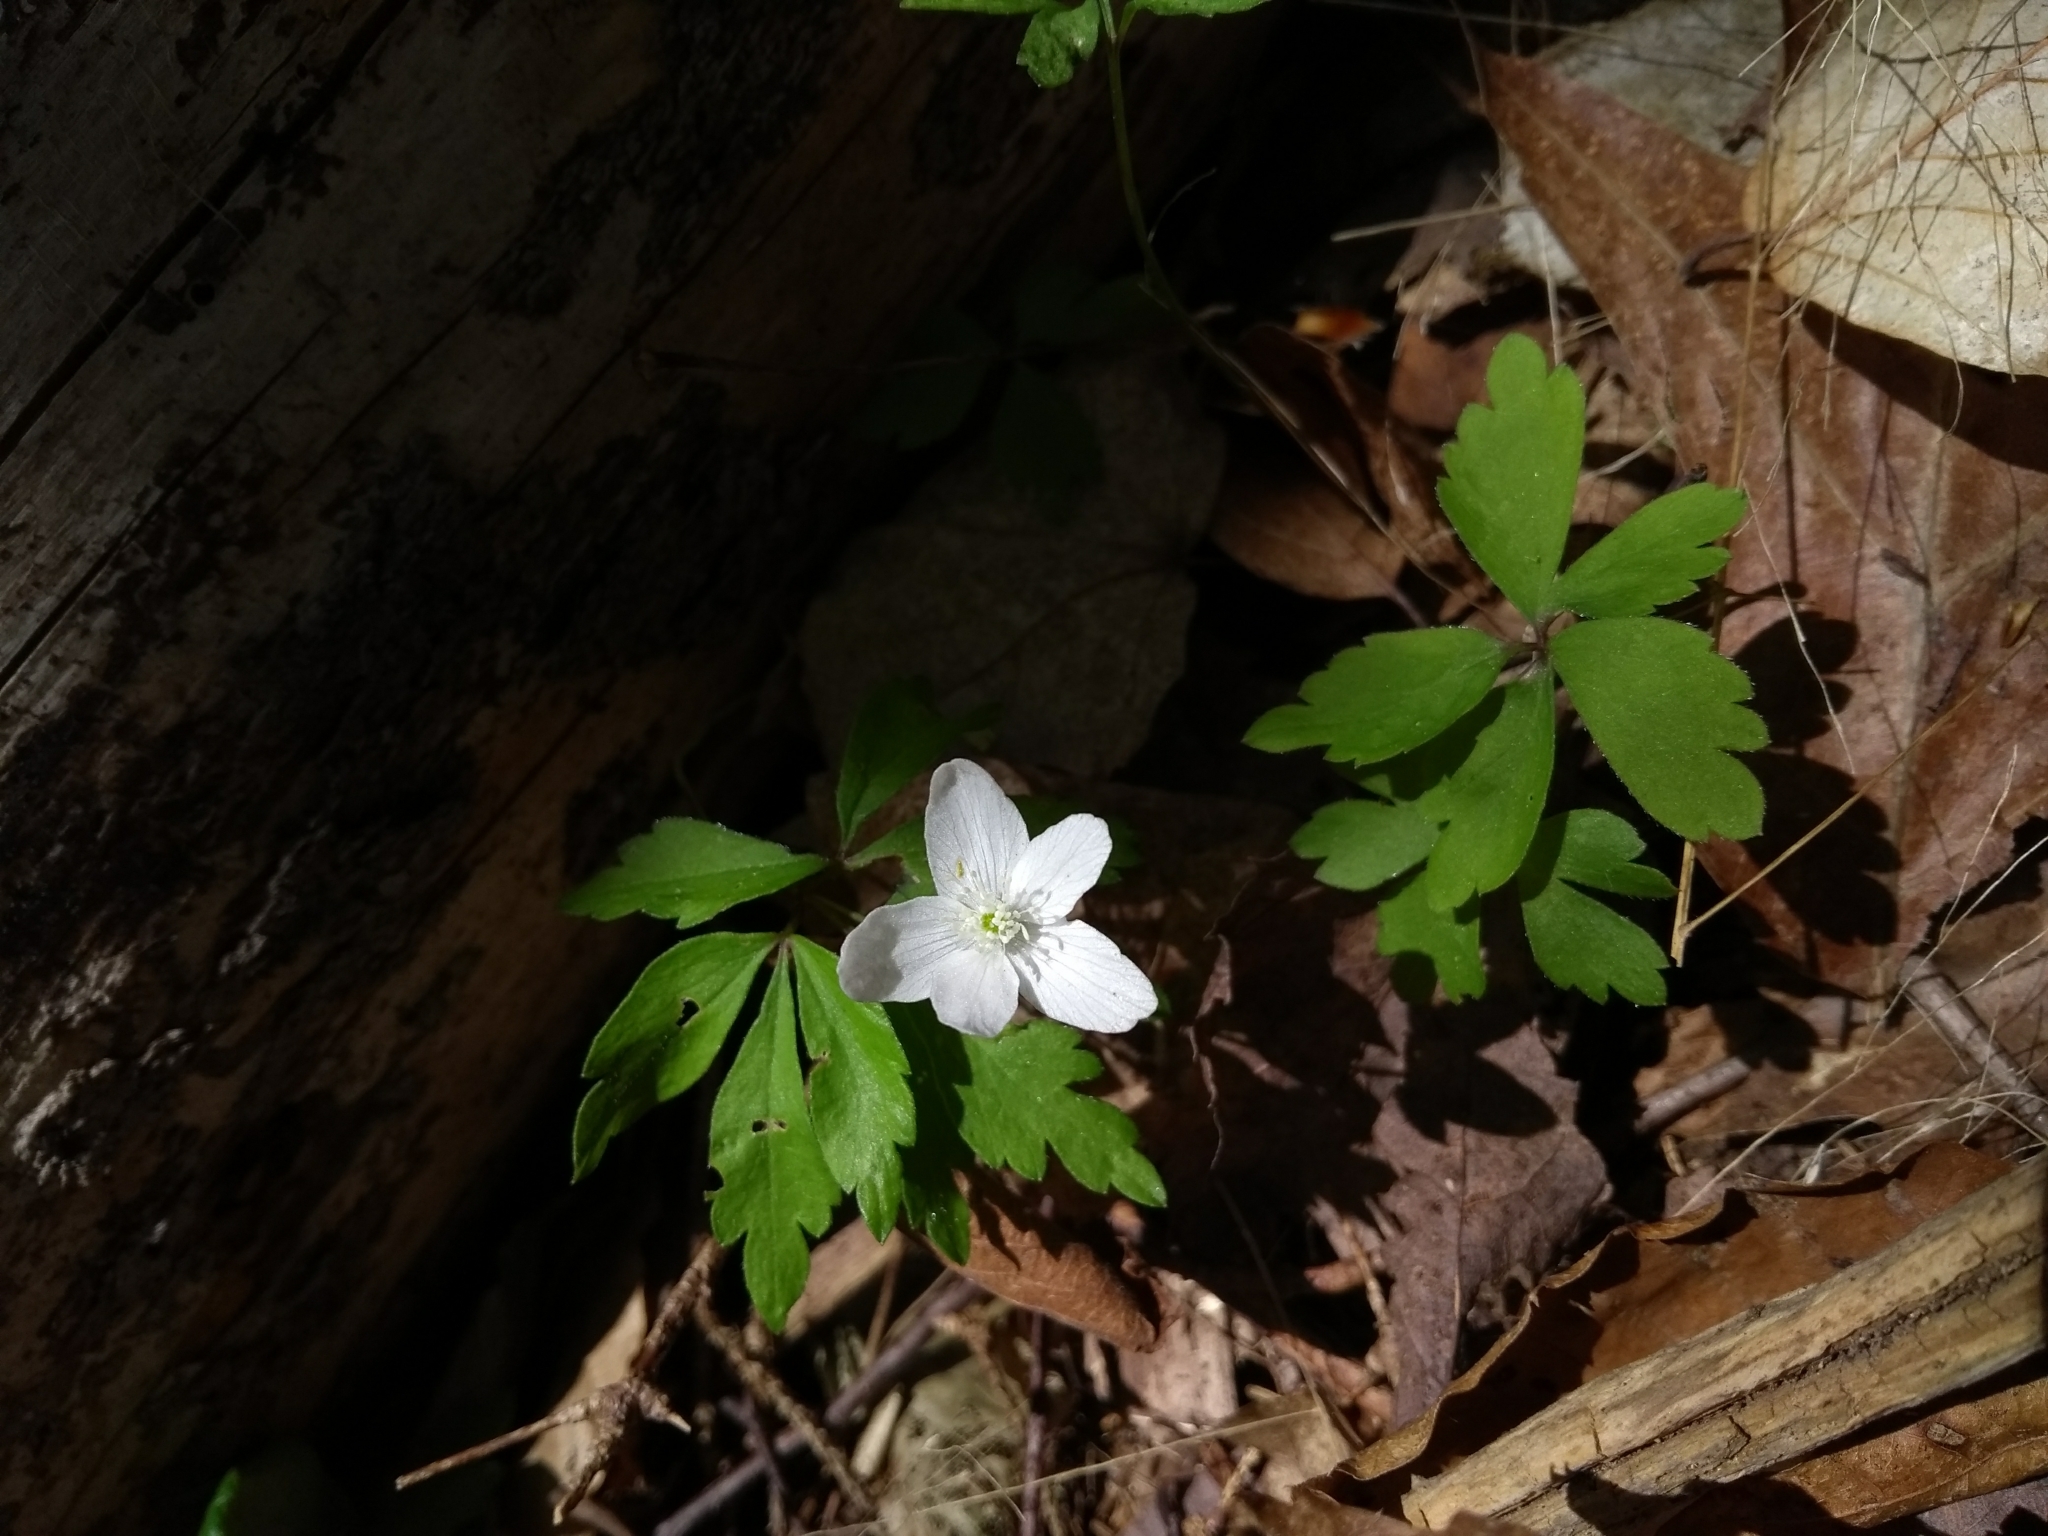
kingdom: Plantae
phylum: Tracheophyta
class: Magnoliopsida
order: Ranunculales
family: Ranunculaceae
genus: Anemone
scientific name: Anemone quinquefolia
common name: Wood anemone
